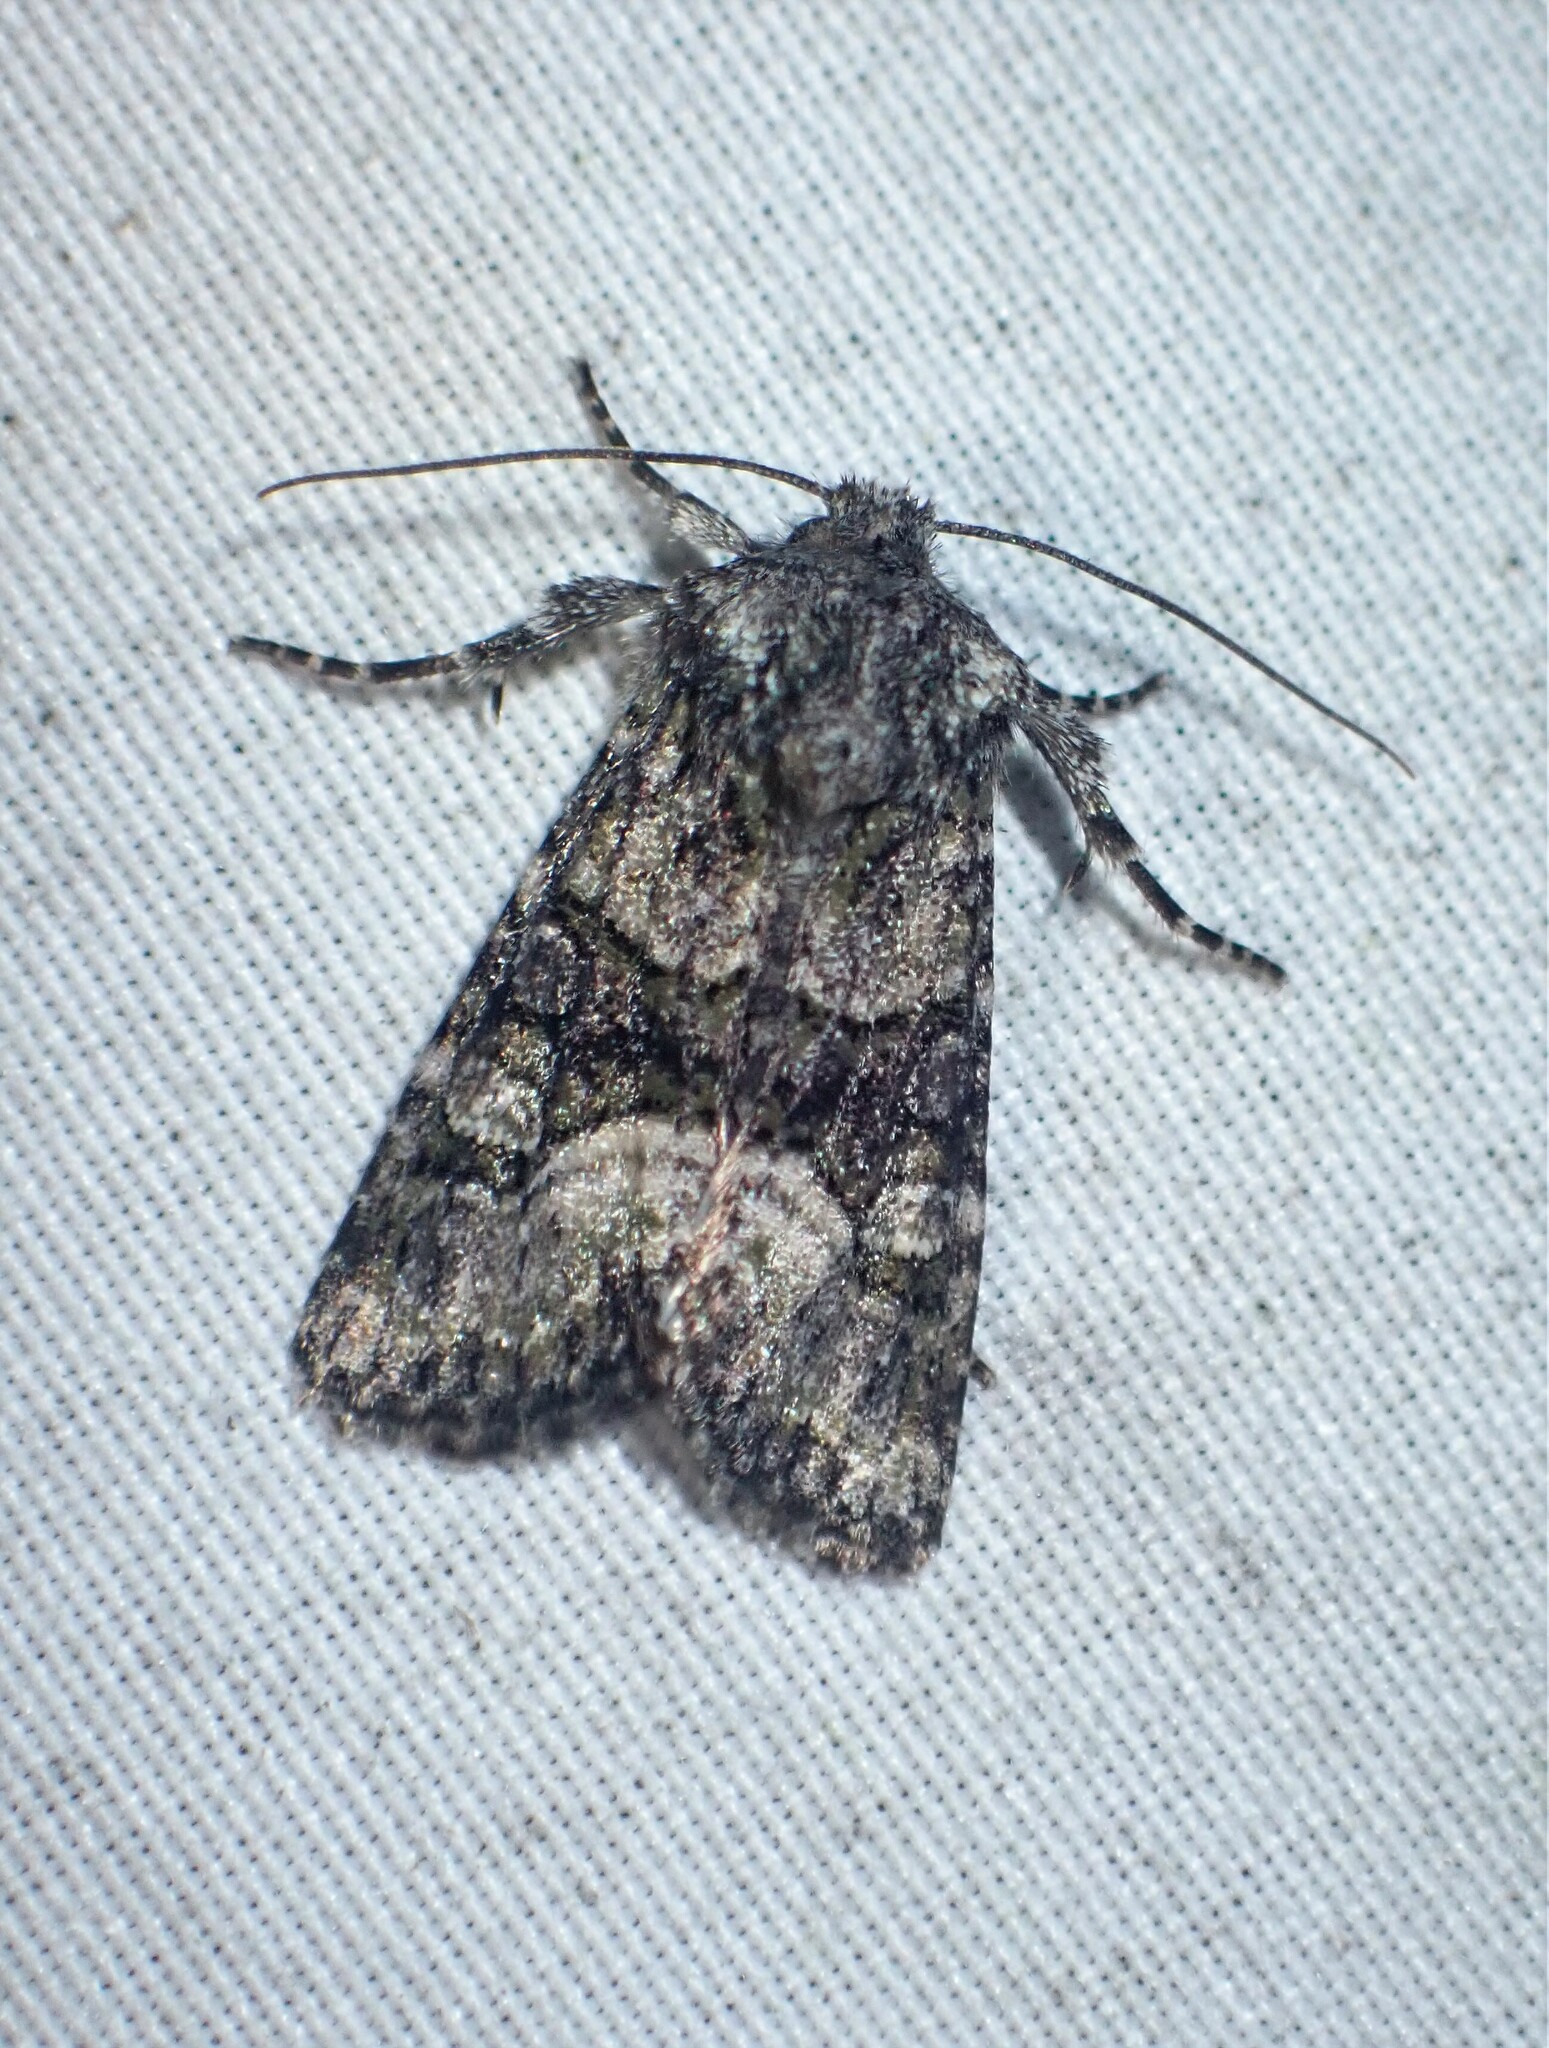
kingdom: Animalia
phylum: Arthropoda
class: Insecta
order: Lepidoptera
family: Noctuidae
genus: Lacinipolia
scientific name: Lacinipolia olivacea
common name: Olive arches moth
